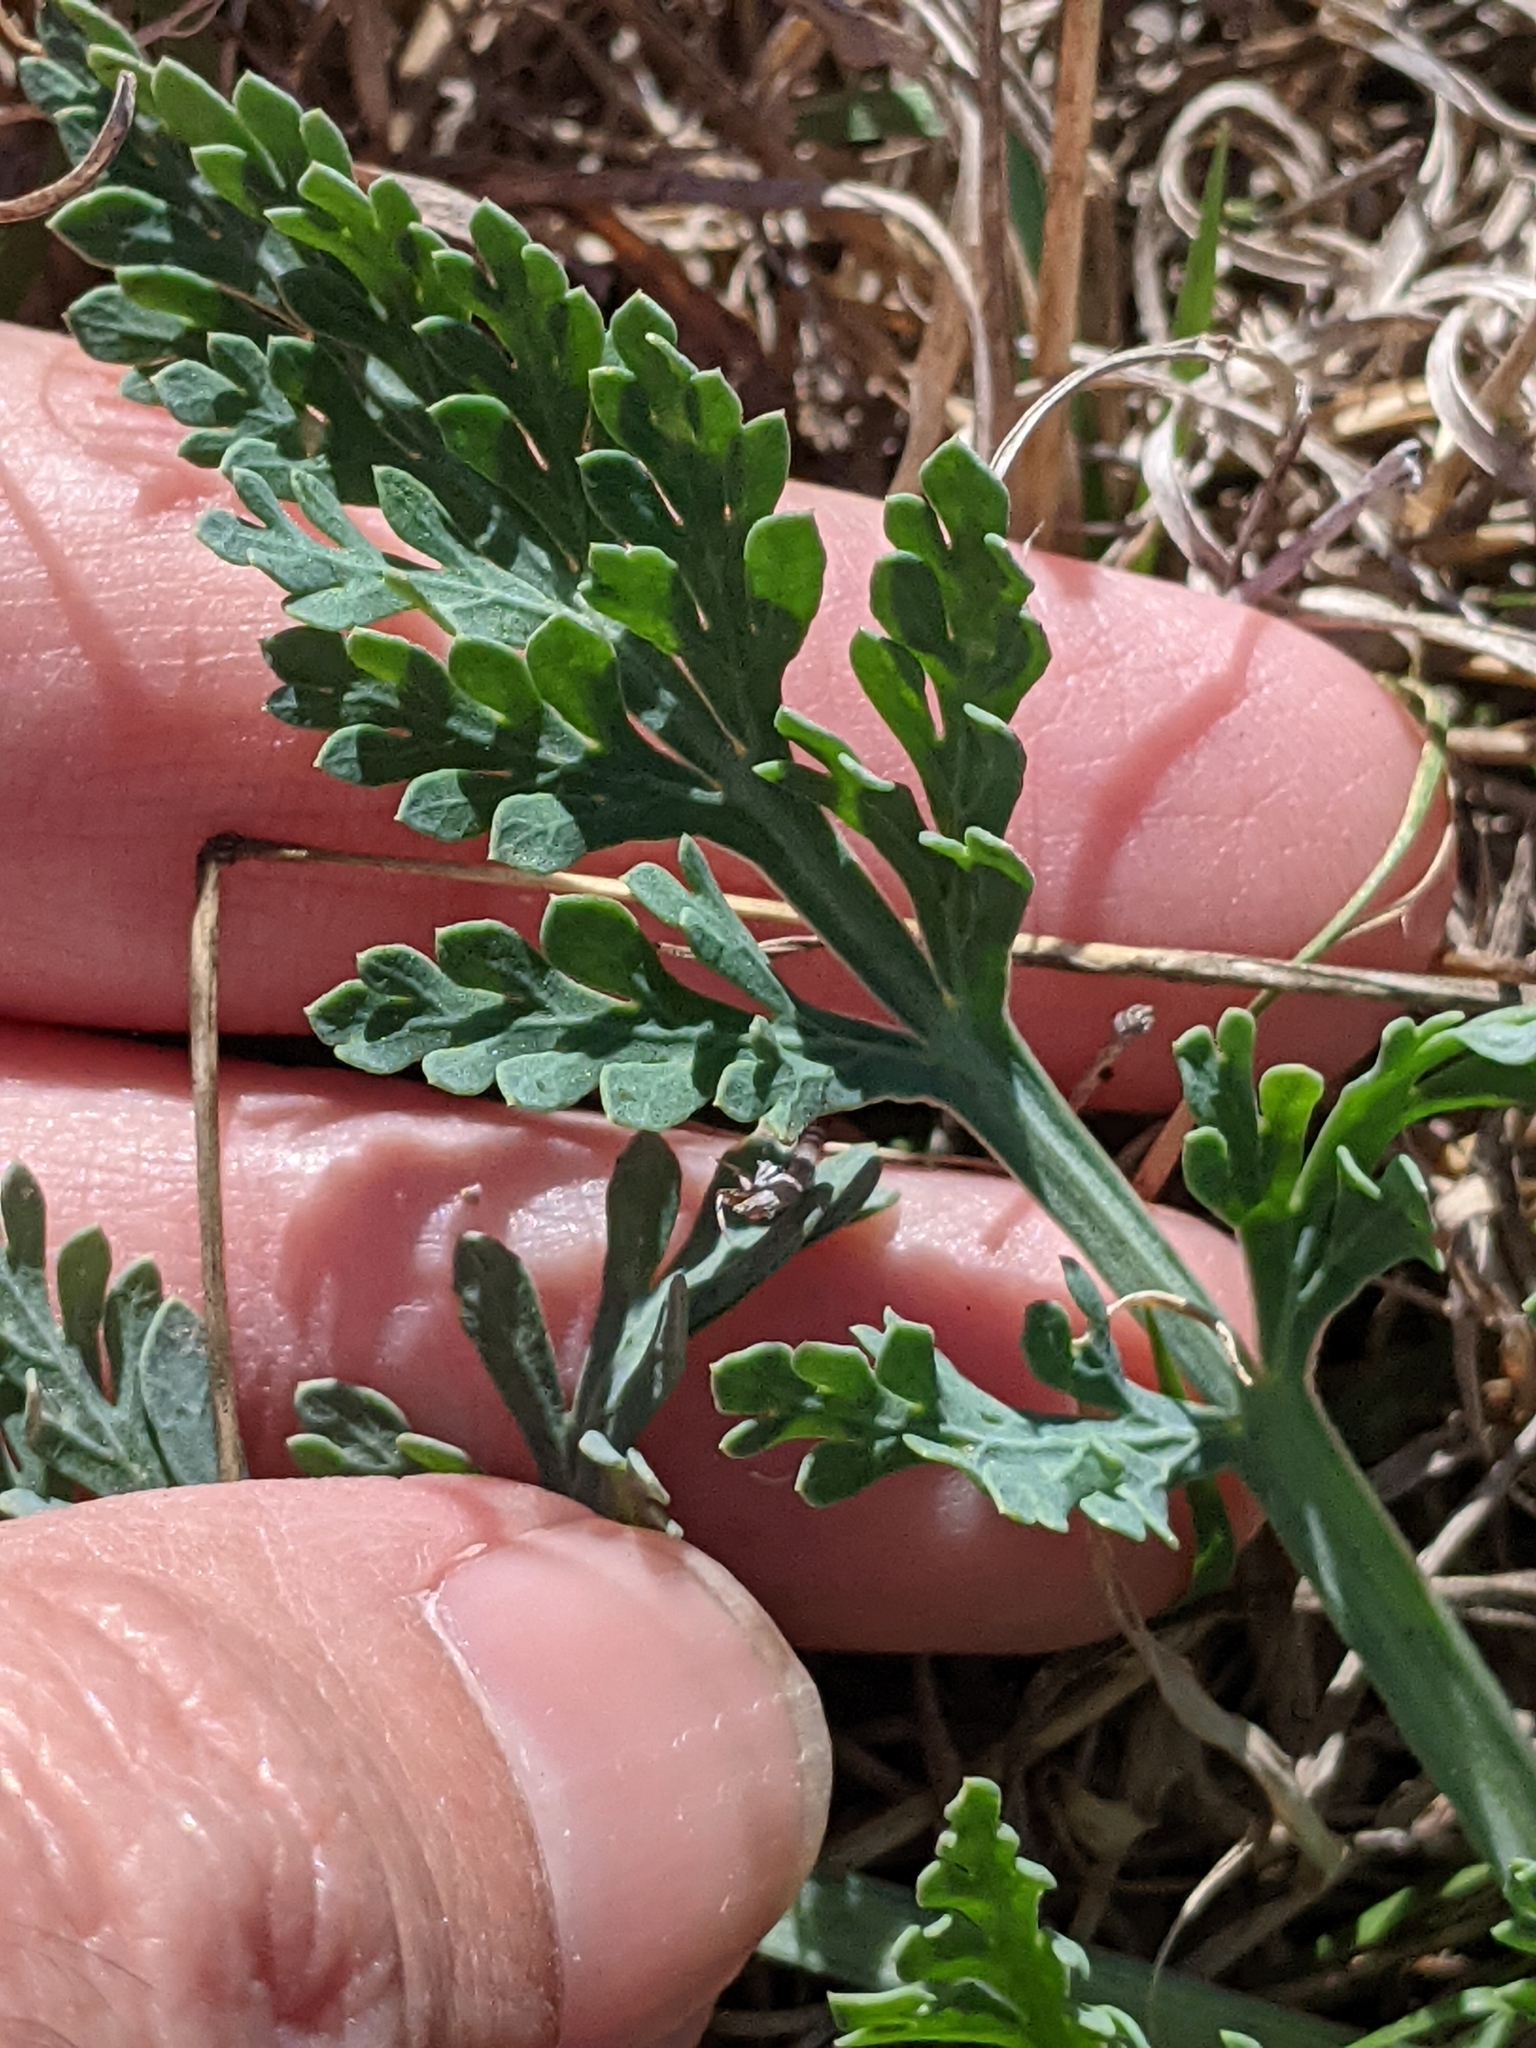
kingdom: Plantae
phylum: Tracheophyta
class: Magnoliopsida
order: Apiales
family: Apiaceae
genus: Vesper
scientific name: Vesper macrorhizus
